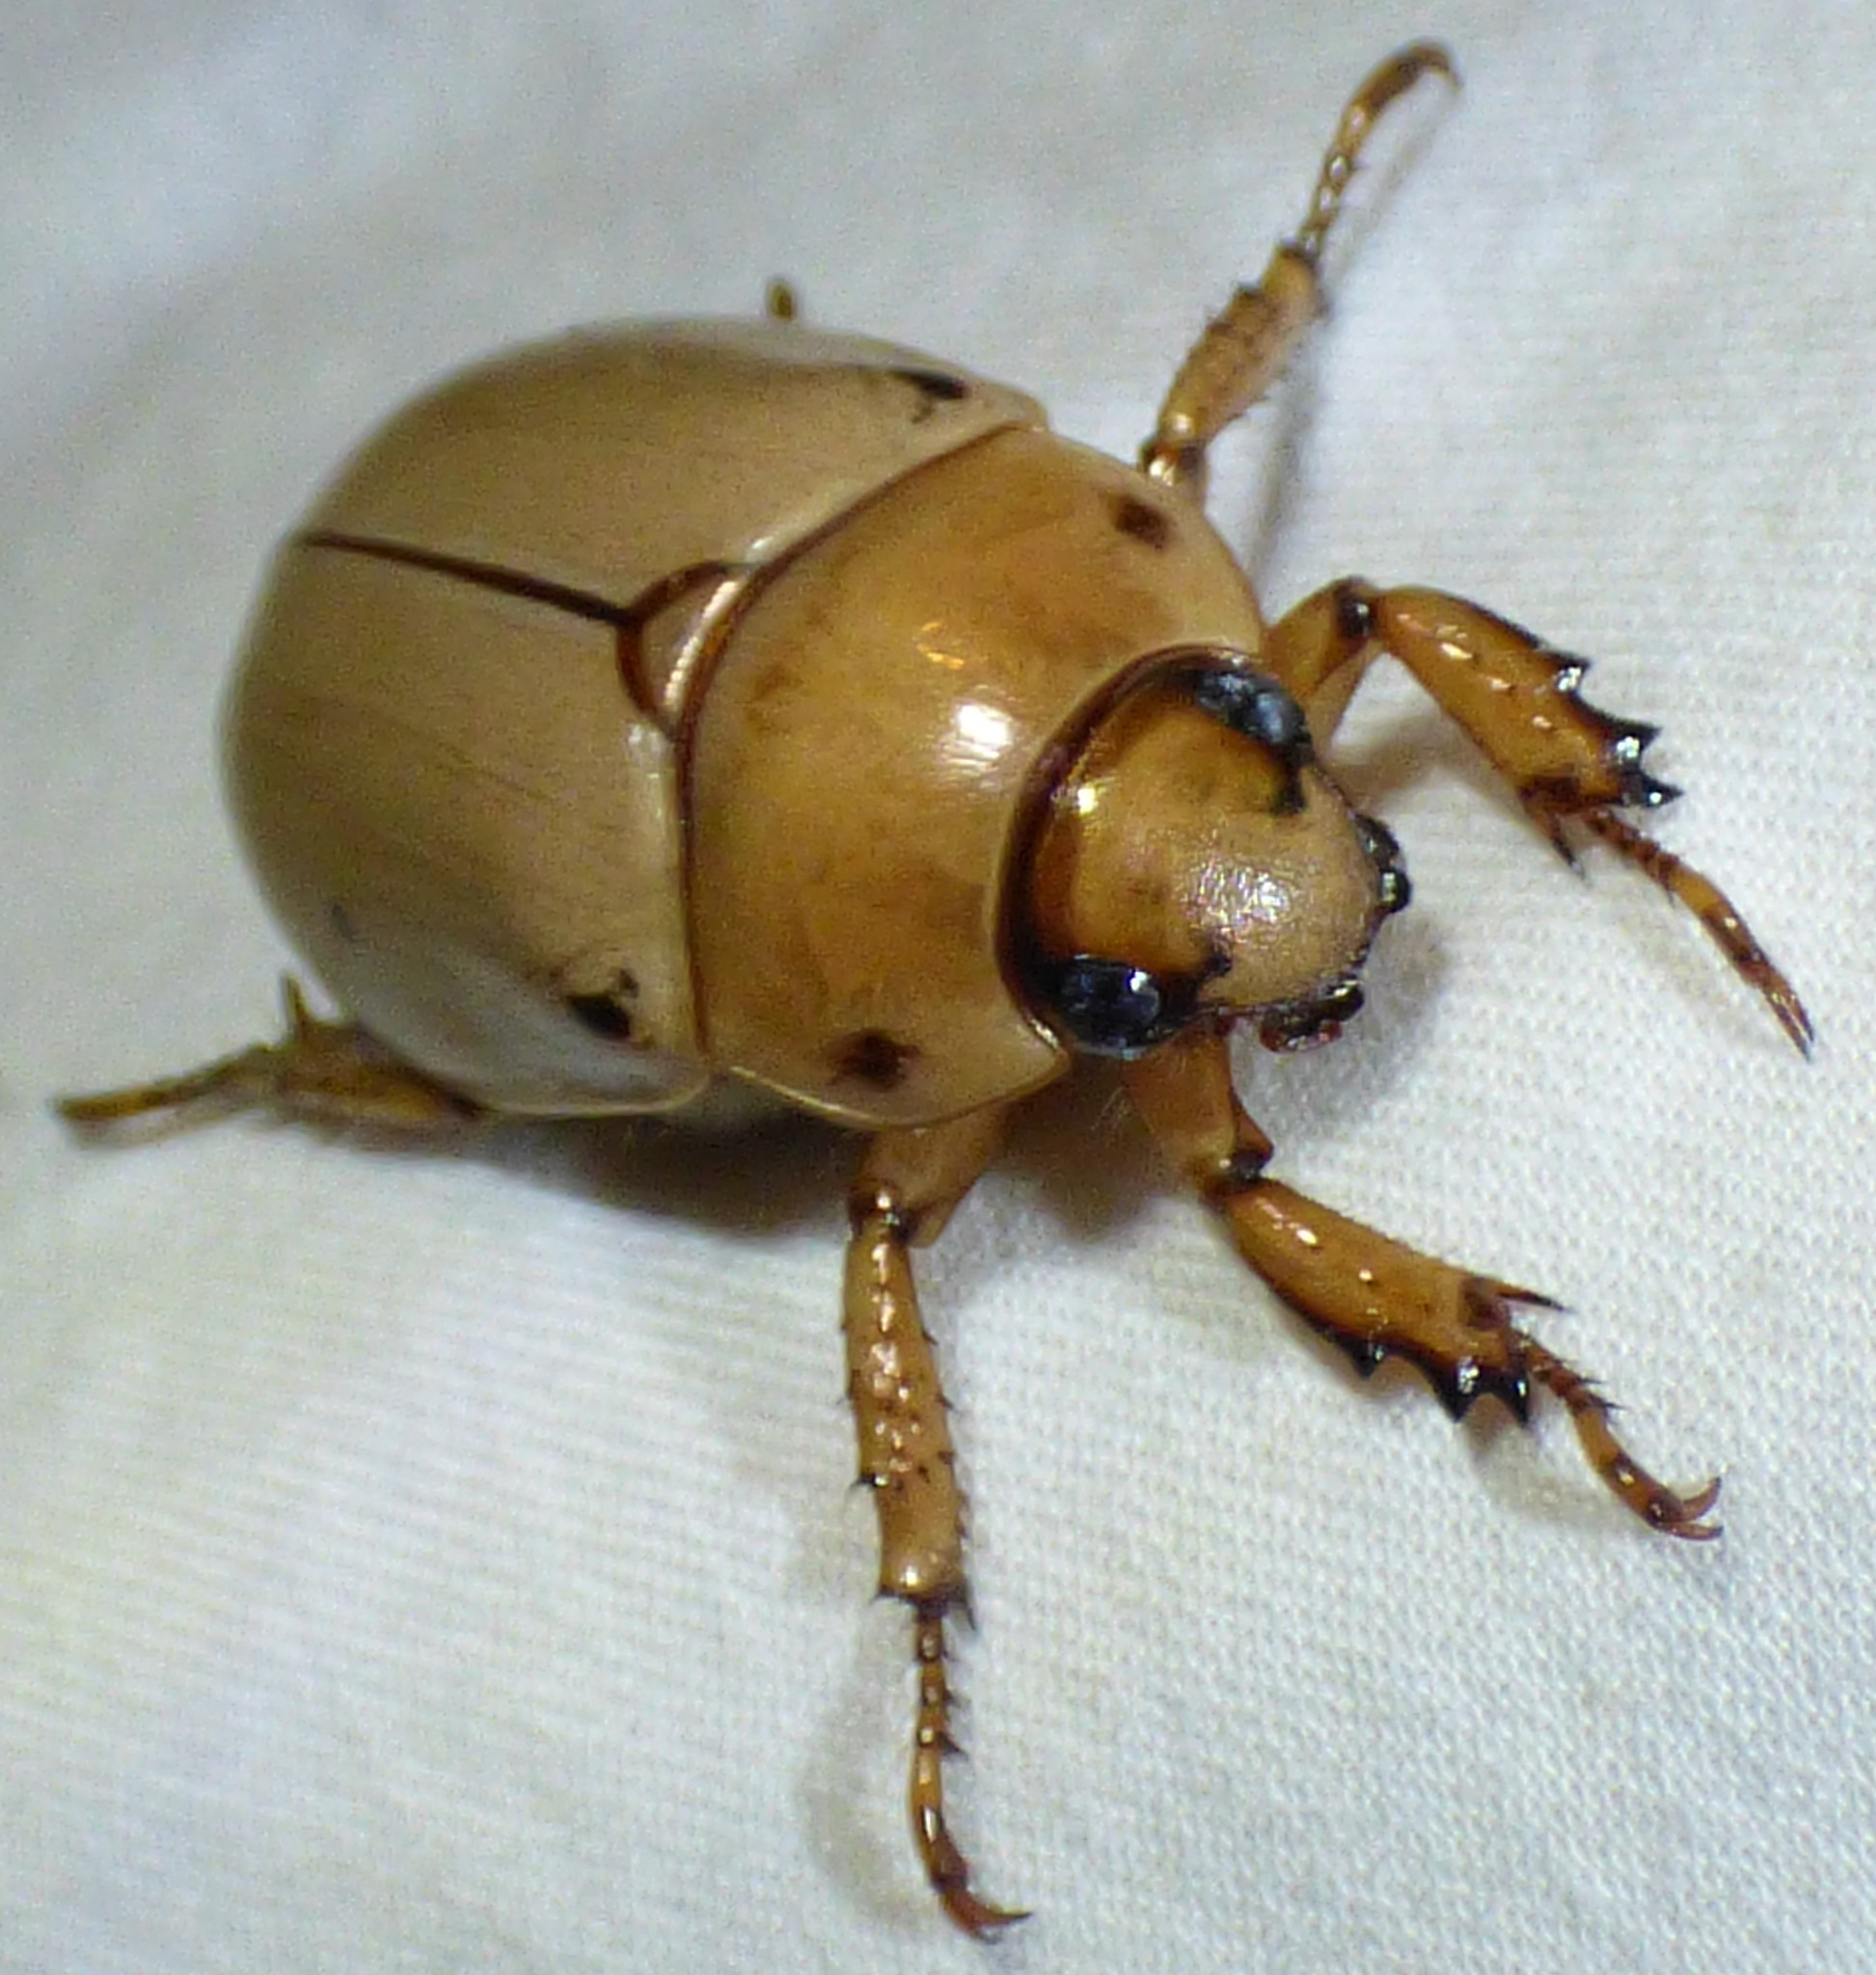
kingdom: Animalia
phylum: Arthropoda
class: Insecta
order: Coleoptera
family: Scarabaeidae
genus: Pelidnota
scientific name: Pelidnota punctata
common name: Grapevine beetle
